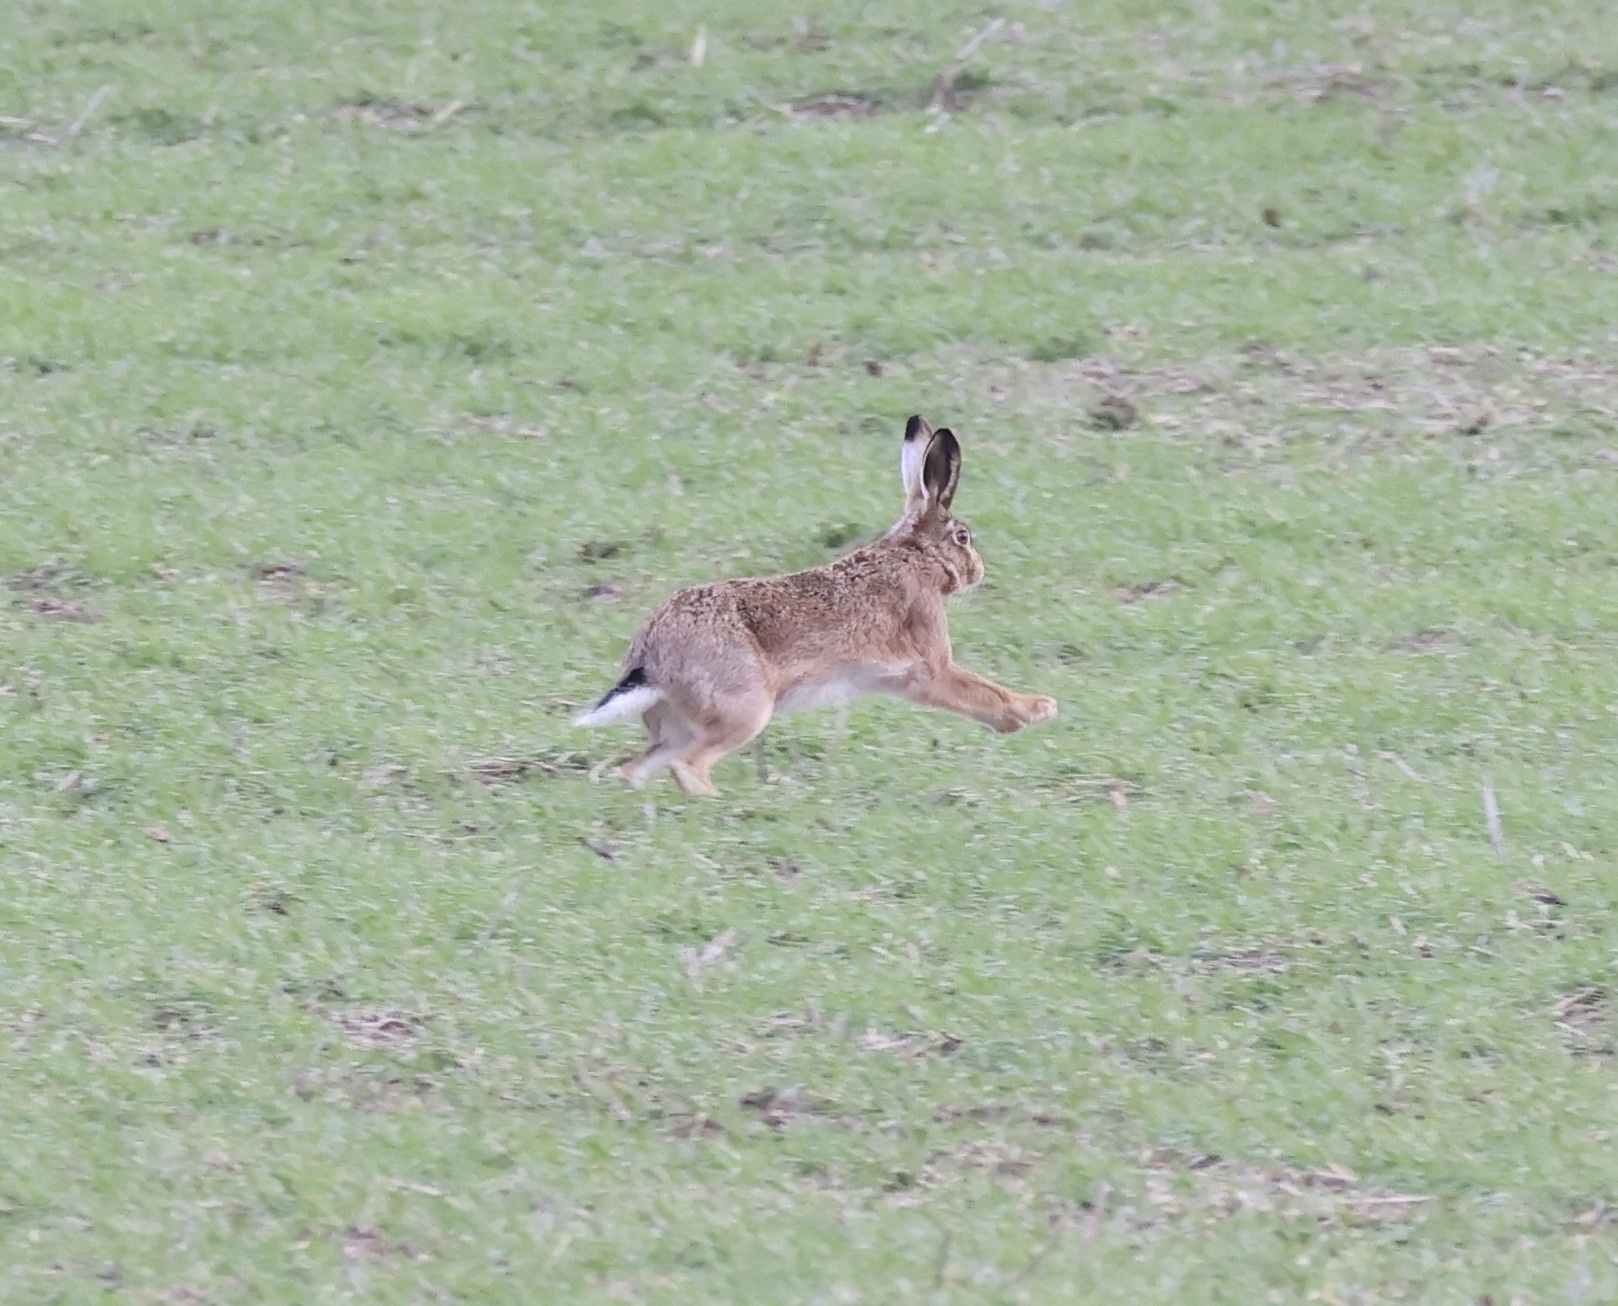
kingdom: Animalia
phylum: Chordata
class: Mammalia
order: Lagomorpha
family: Leporidae
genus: Lepus
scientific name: Lepus europaeus
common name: European hare
